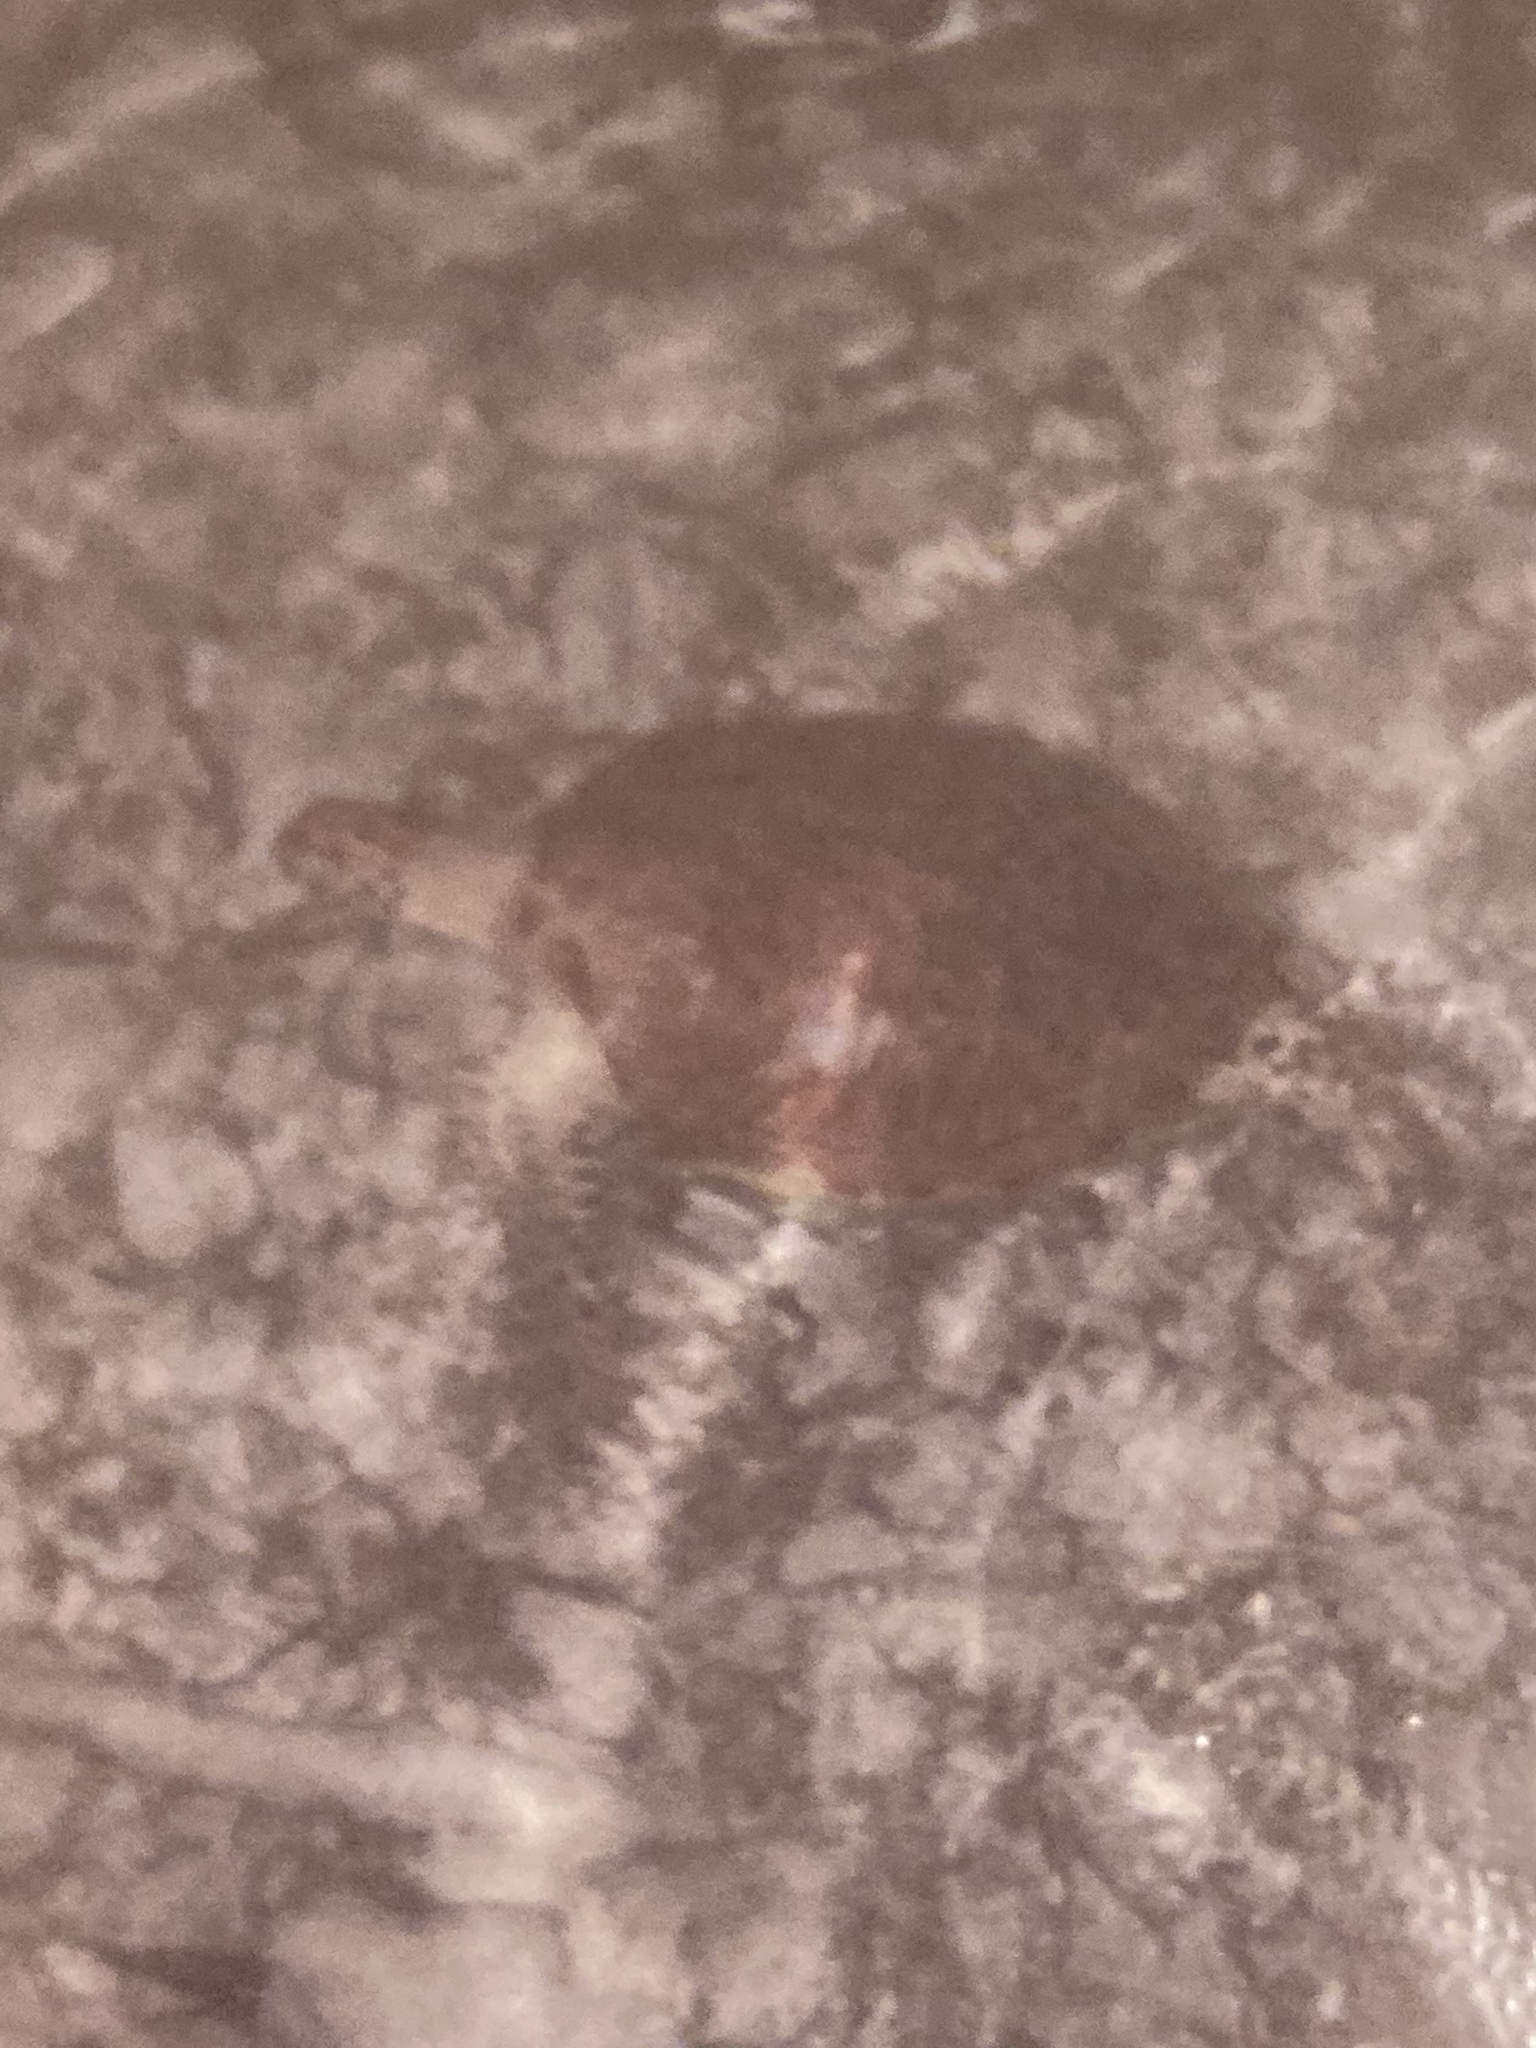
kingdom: Animalia
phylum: Chordata
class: Testudines
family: Cheloniidae
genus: Chelonia
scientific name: Chelonia mydas
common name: Green turtle
